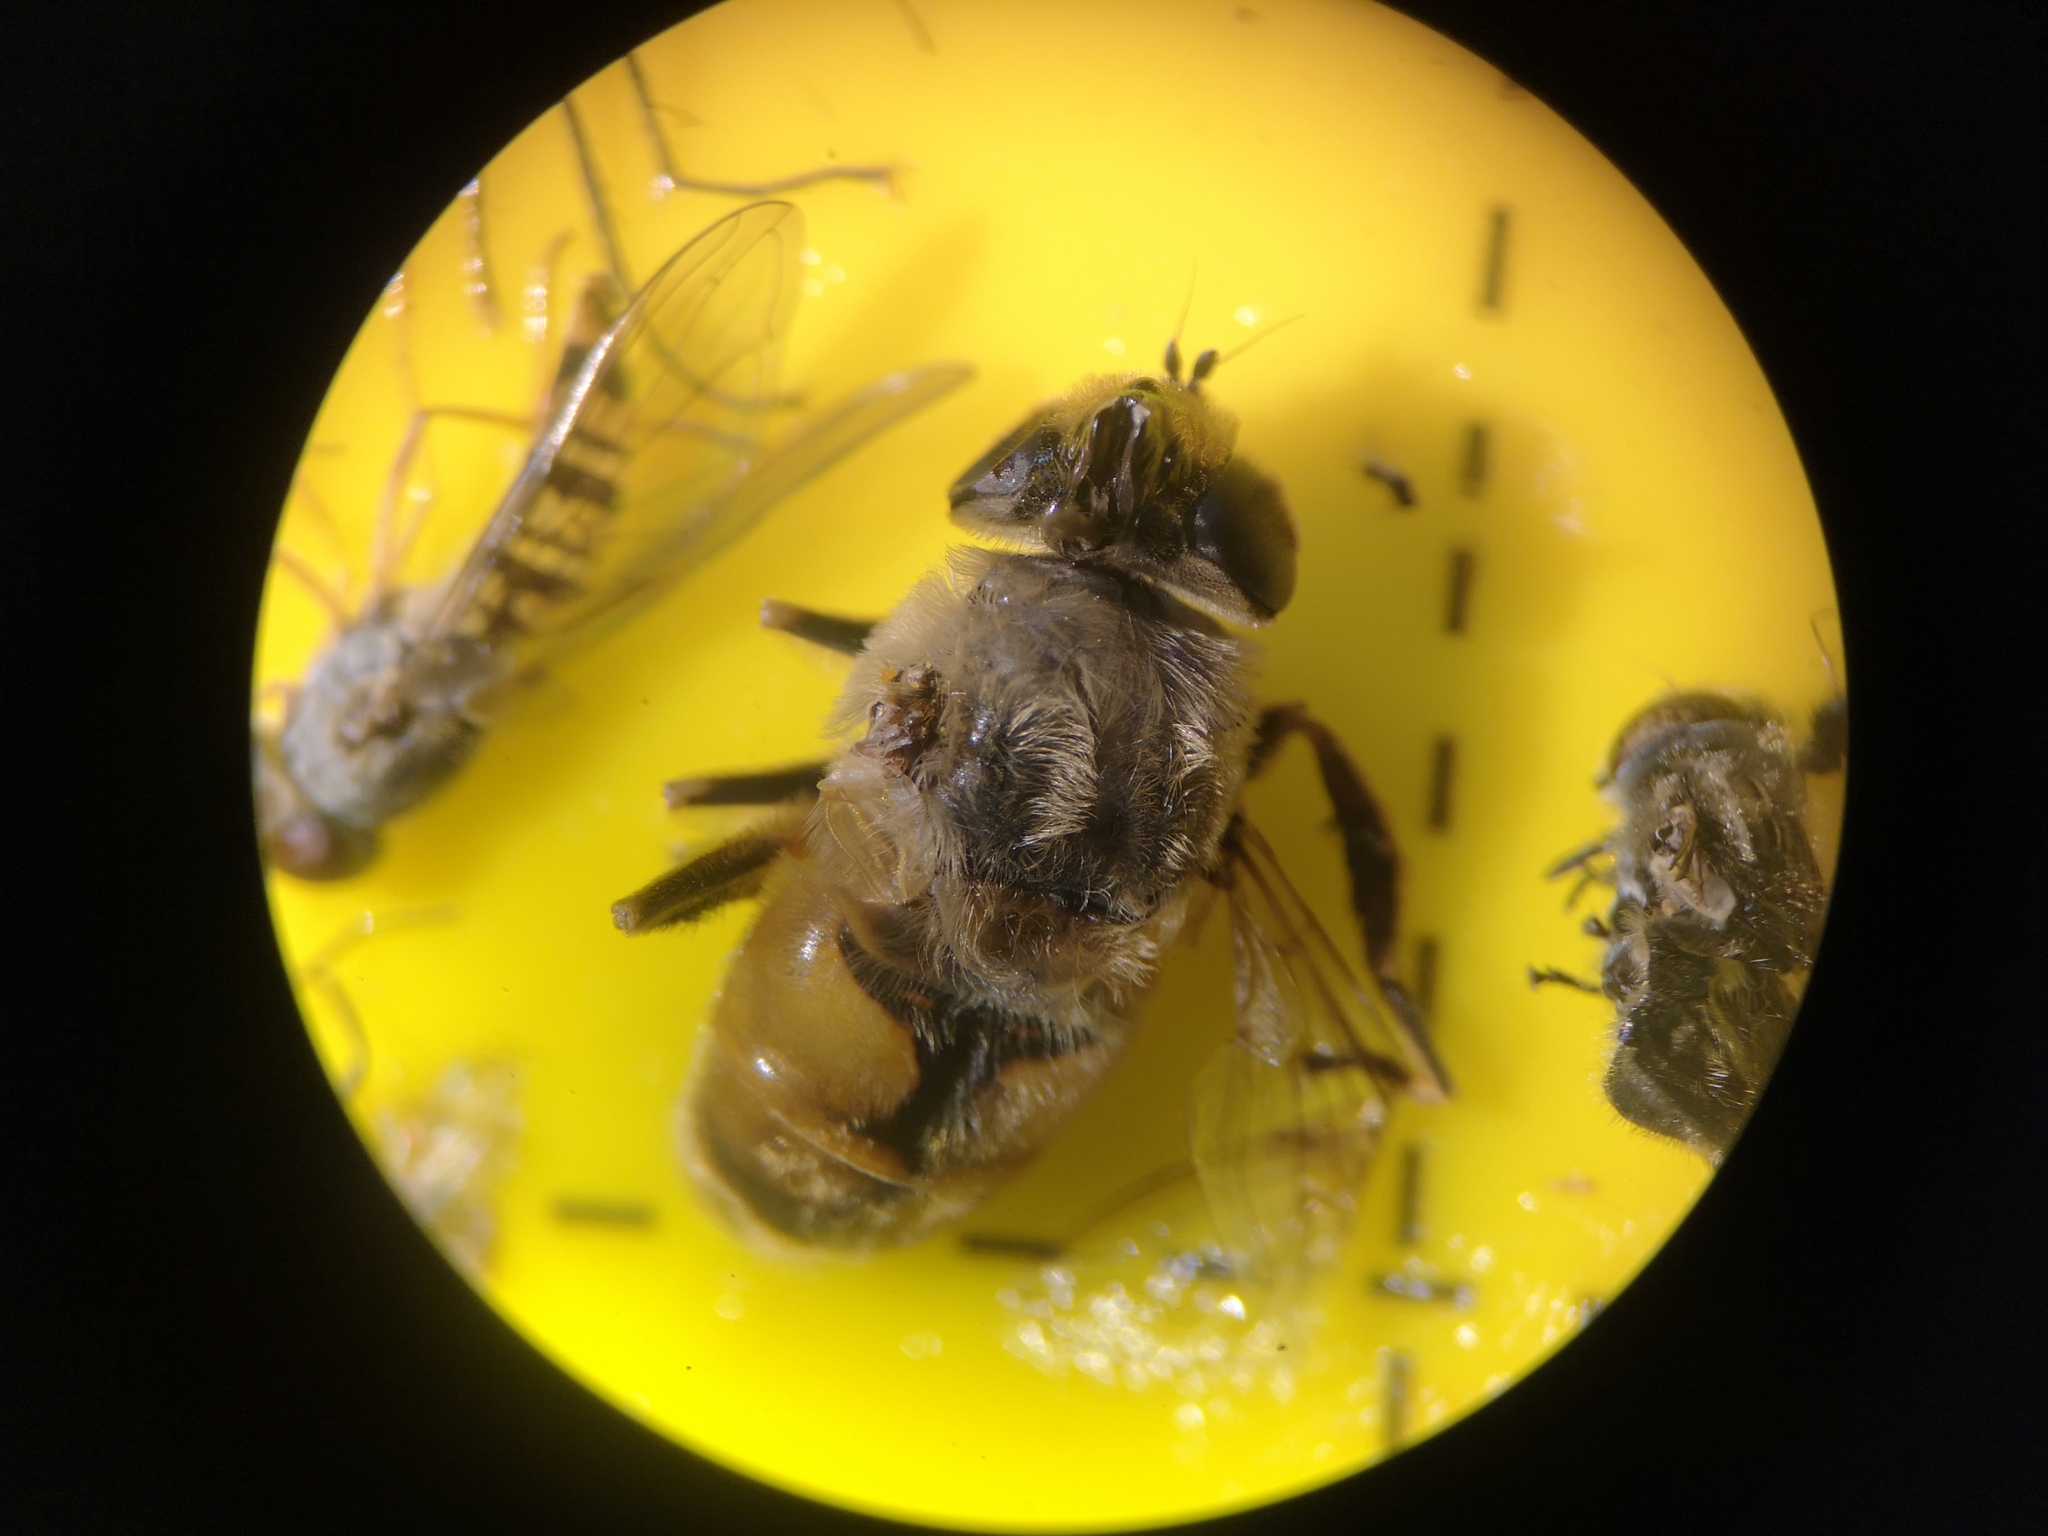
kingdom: Animalia
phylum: Arthropoda
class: Insecta
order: Diptera
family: Syrphidae
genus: Eristalis
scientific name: Eristalis tenax
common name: Drone fly
